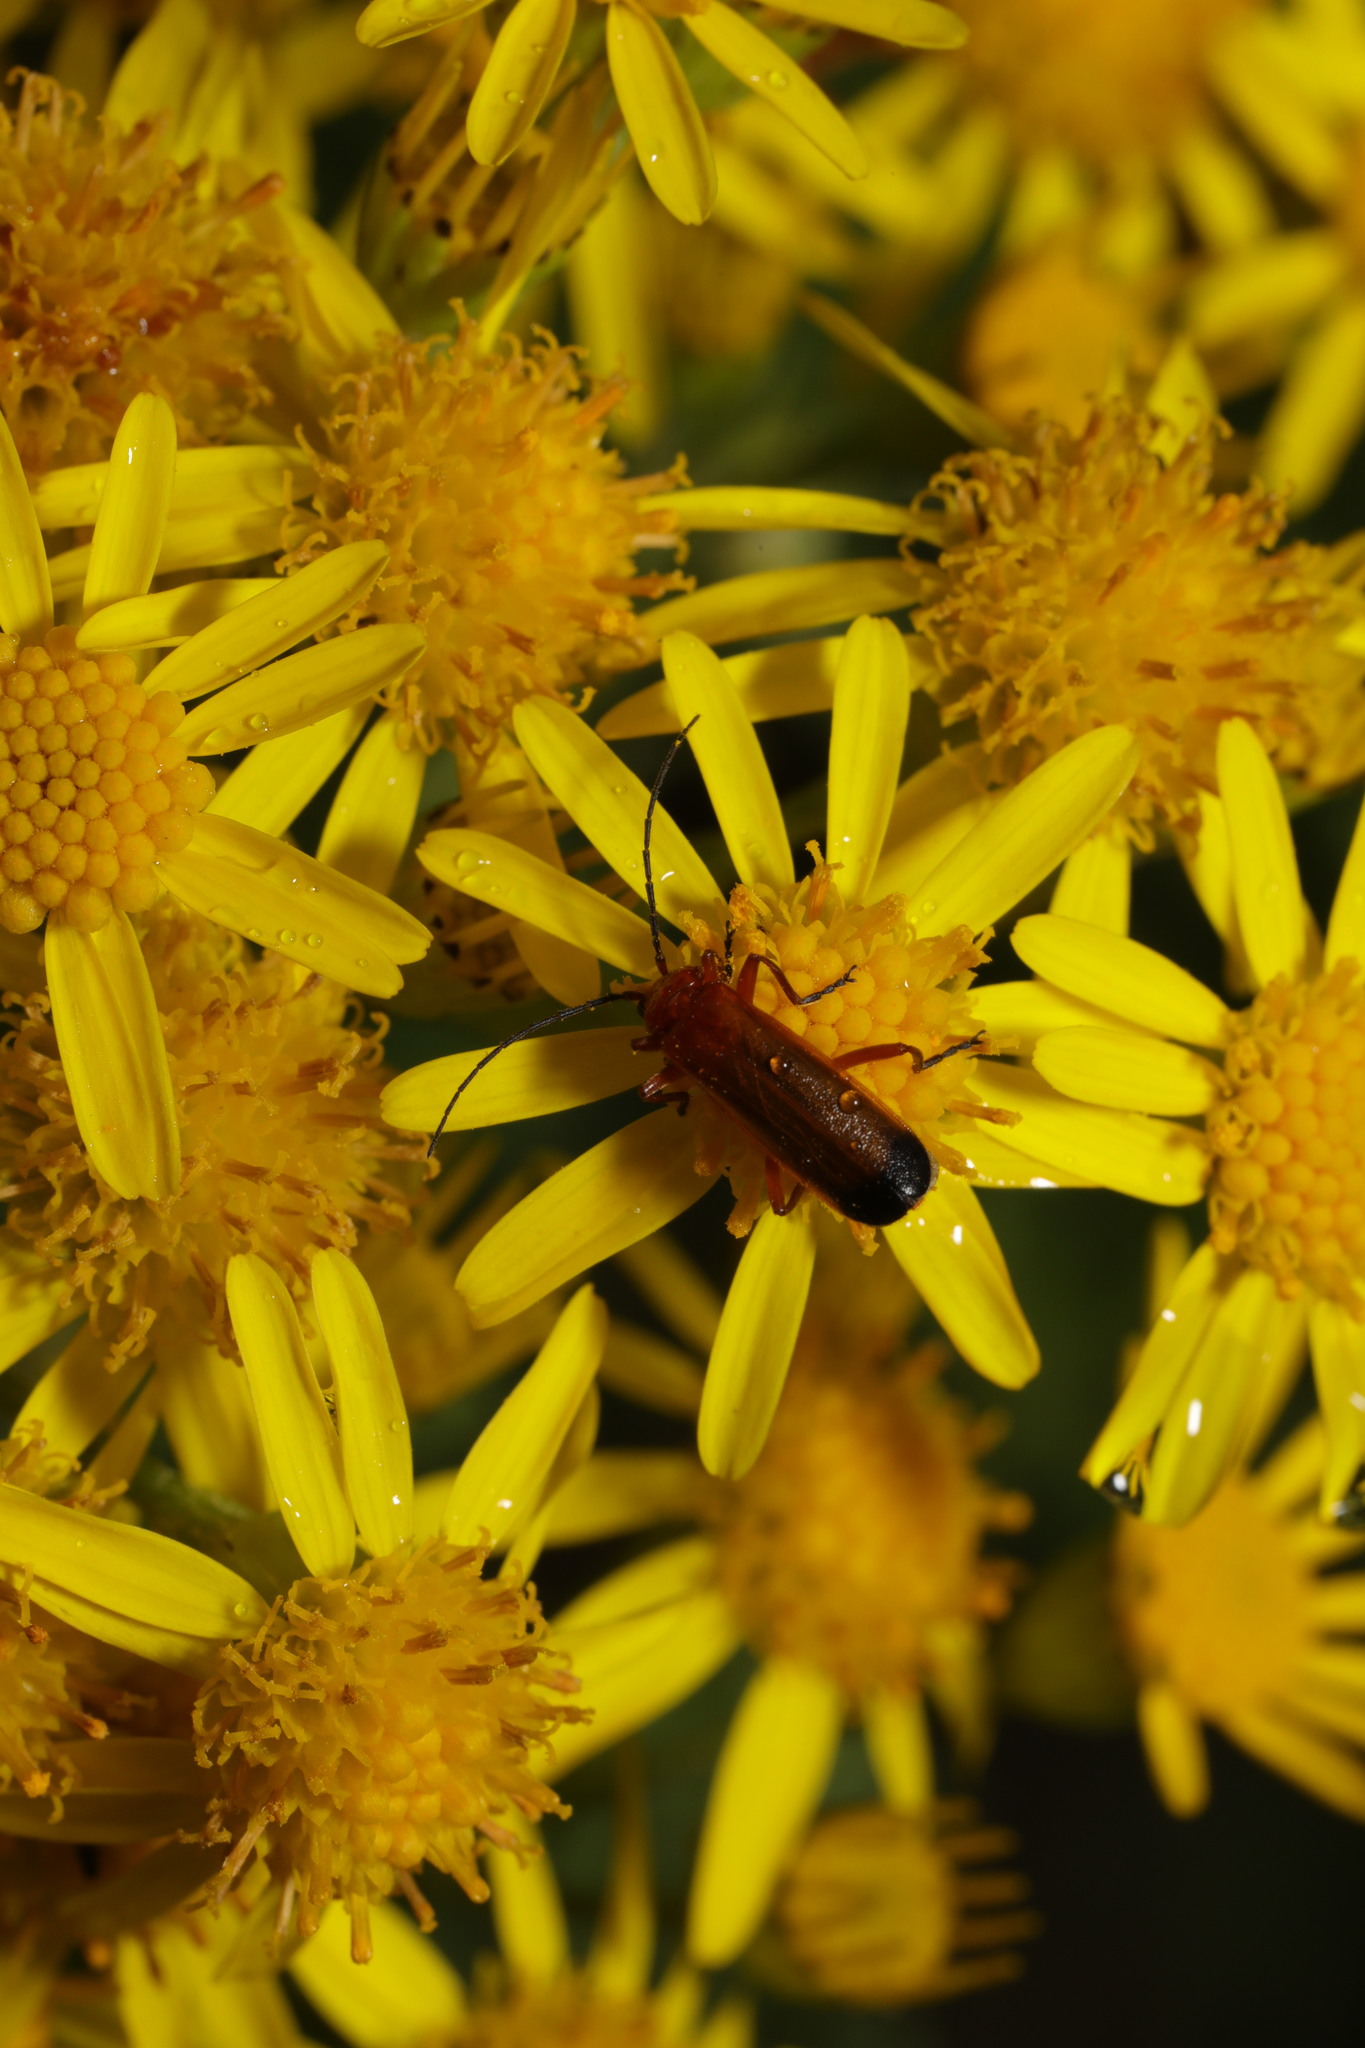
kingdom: Animalia
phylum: Arthropoda
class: Insecta
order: Coleoptera
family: Cantharidae
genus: Rhagonycha
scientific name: Rhagonycha fulva
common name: Common red soldier beetle
